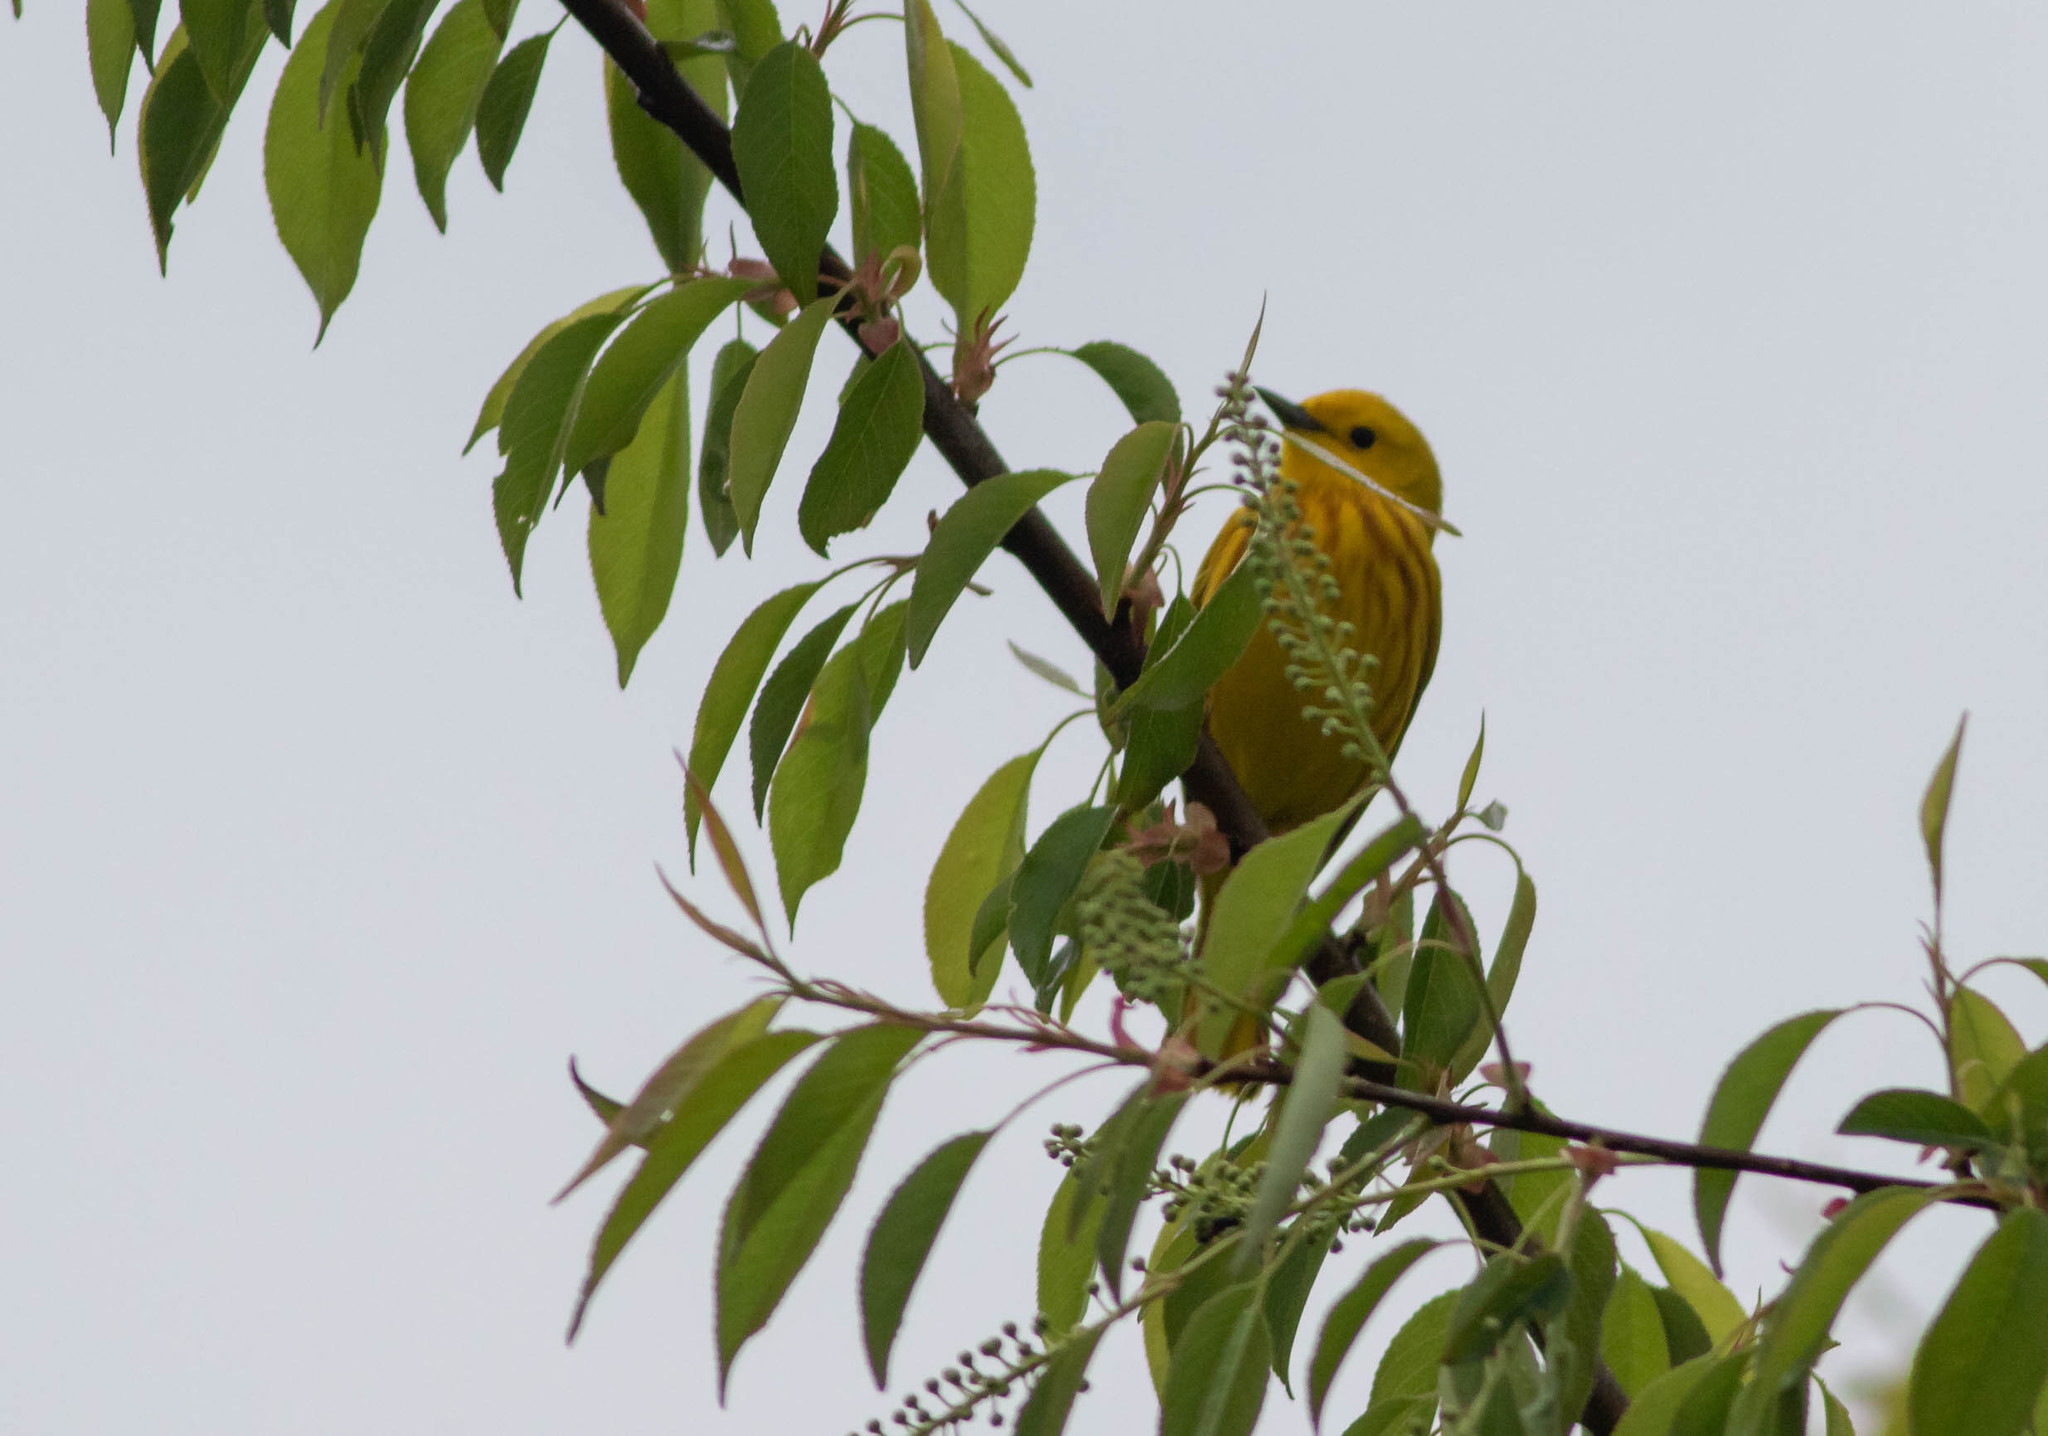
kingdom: Animalia
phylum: Chordata
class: Aves
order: Passeriformes
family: Parulidae
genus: Setophaga
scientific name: Setophaga petechia
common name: Yellow warbler
